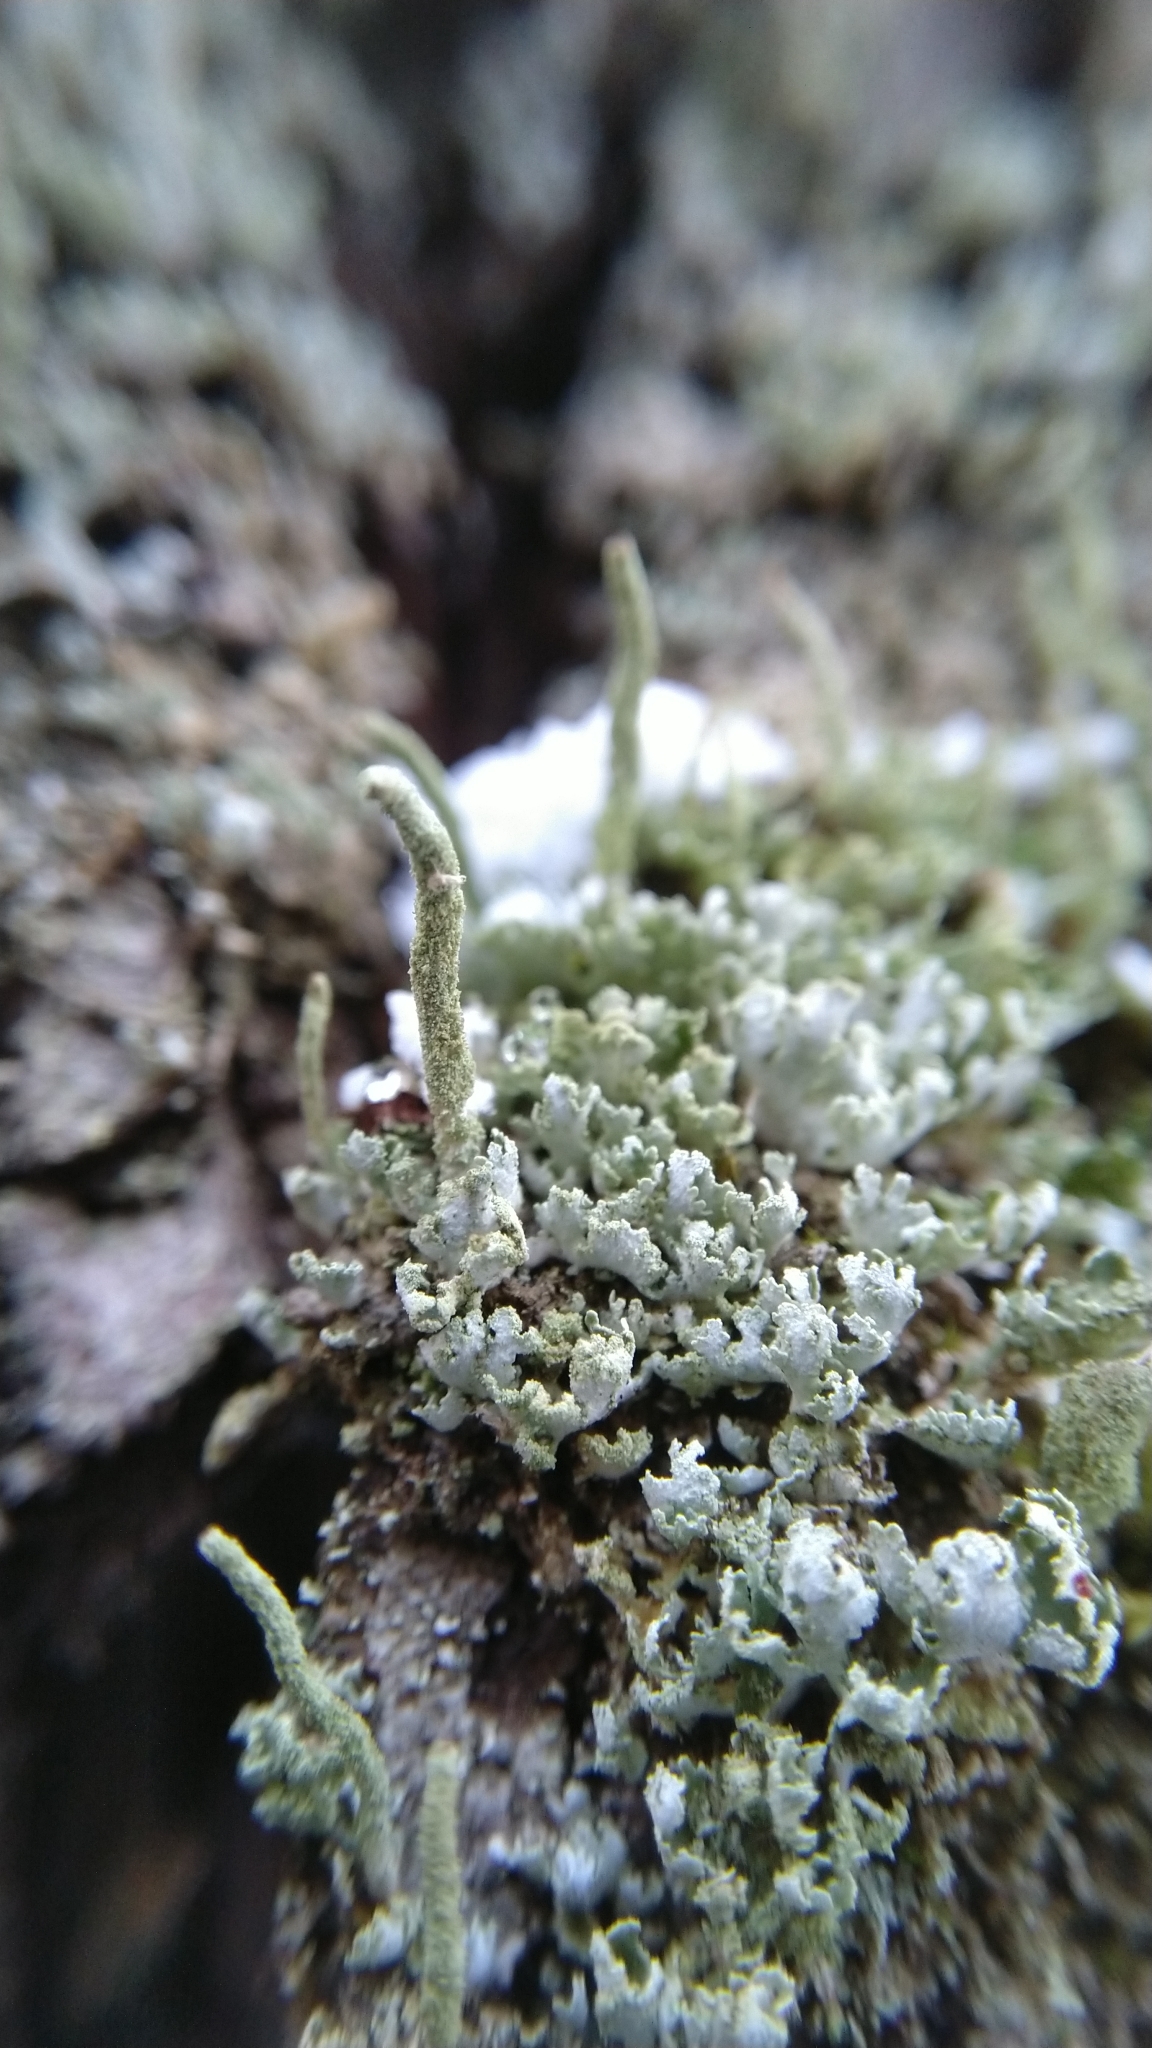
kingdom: Fungi
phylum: Ascomycota
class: Lecanoromycetes
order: Lecanorales
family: Cladoniaceae
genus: Cladonia
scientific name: Cladonia coniocraea
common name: Common powderhorn
